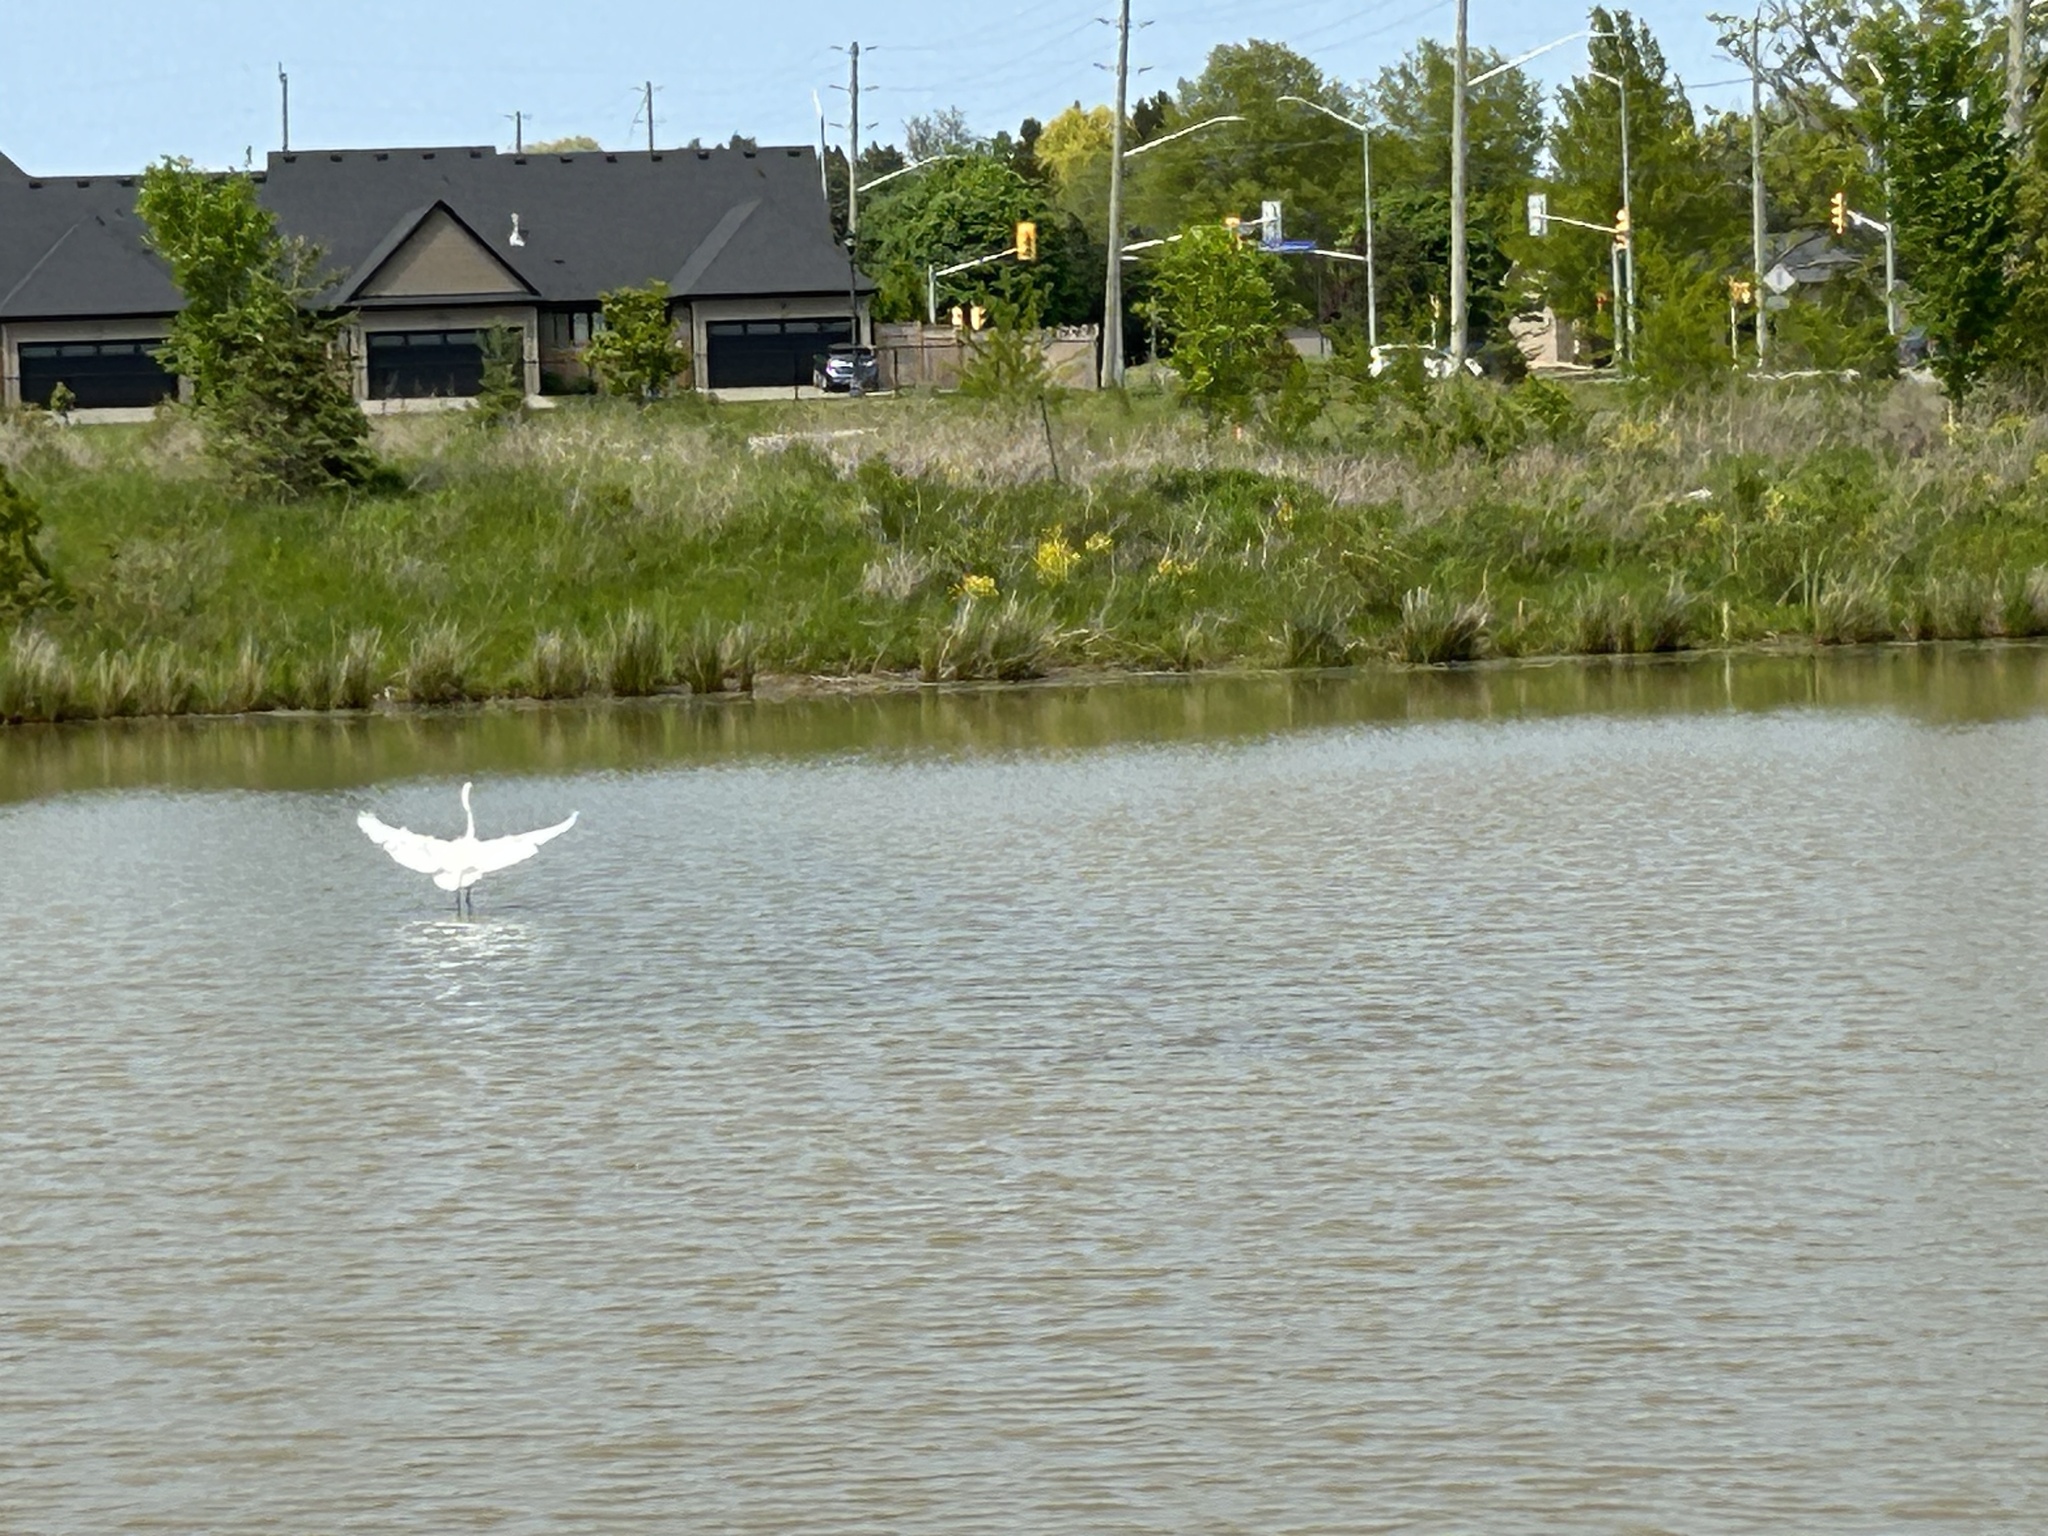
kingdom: Animalia
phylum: Chordata
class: Aves
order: Pelecaniformes
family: Ardeidae
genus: Ardea
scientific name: Ardea alba
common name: Great egret
